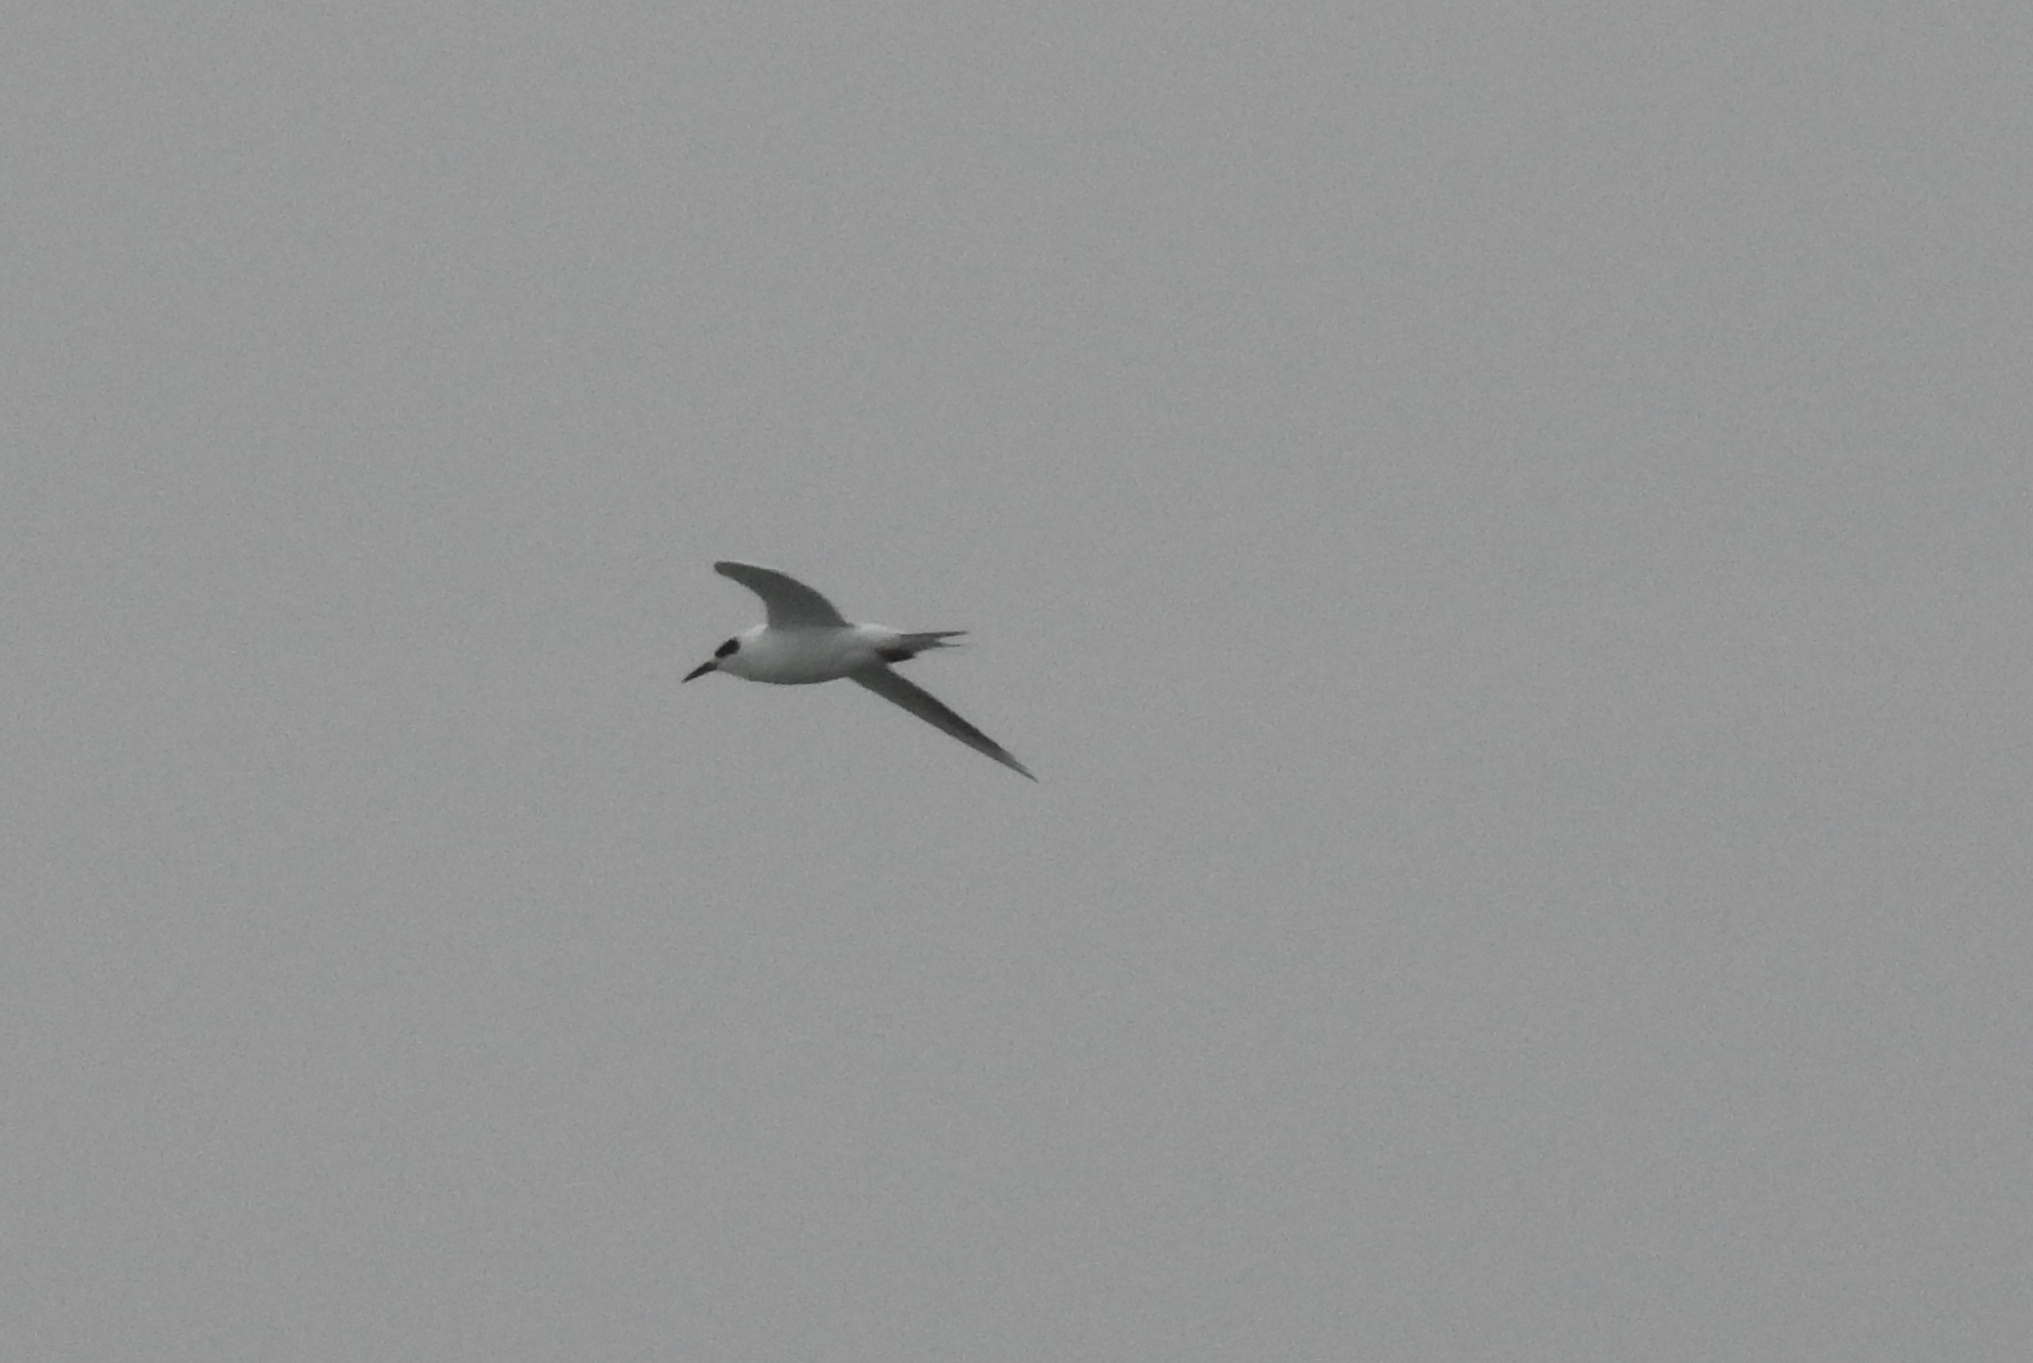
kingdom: Animalia
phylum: Chordata
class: Aves
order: Charadriiformes
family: Laridae
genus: Sterna
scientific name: Sterna forsteri
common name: Forster's tern
